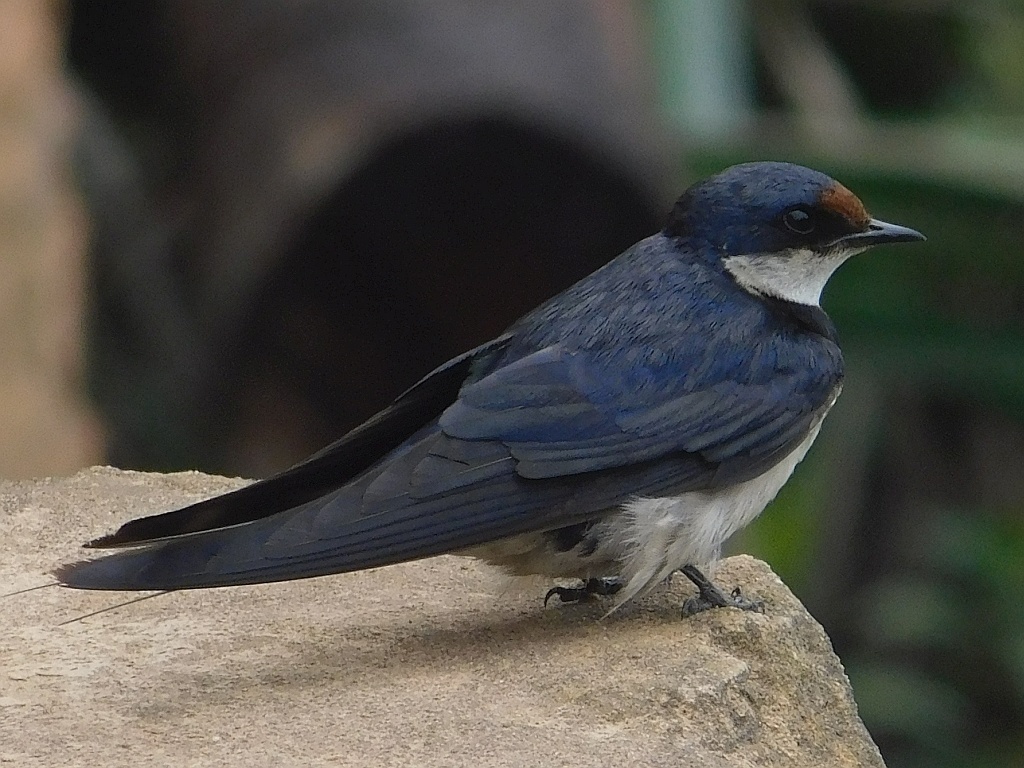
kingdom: Animalia
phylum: Chordata
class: Aves
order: Passeriformes
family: Hirundinidae
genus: Hirundo
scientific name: Hirundo albigularis
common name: White-throated swallow
